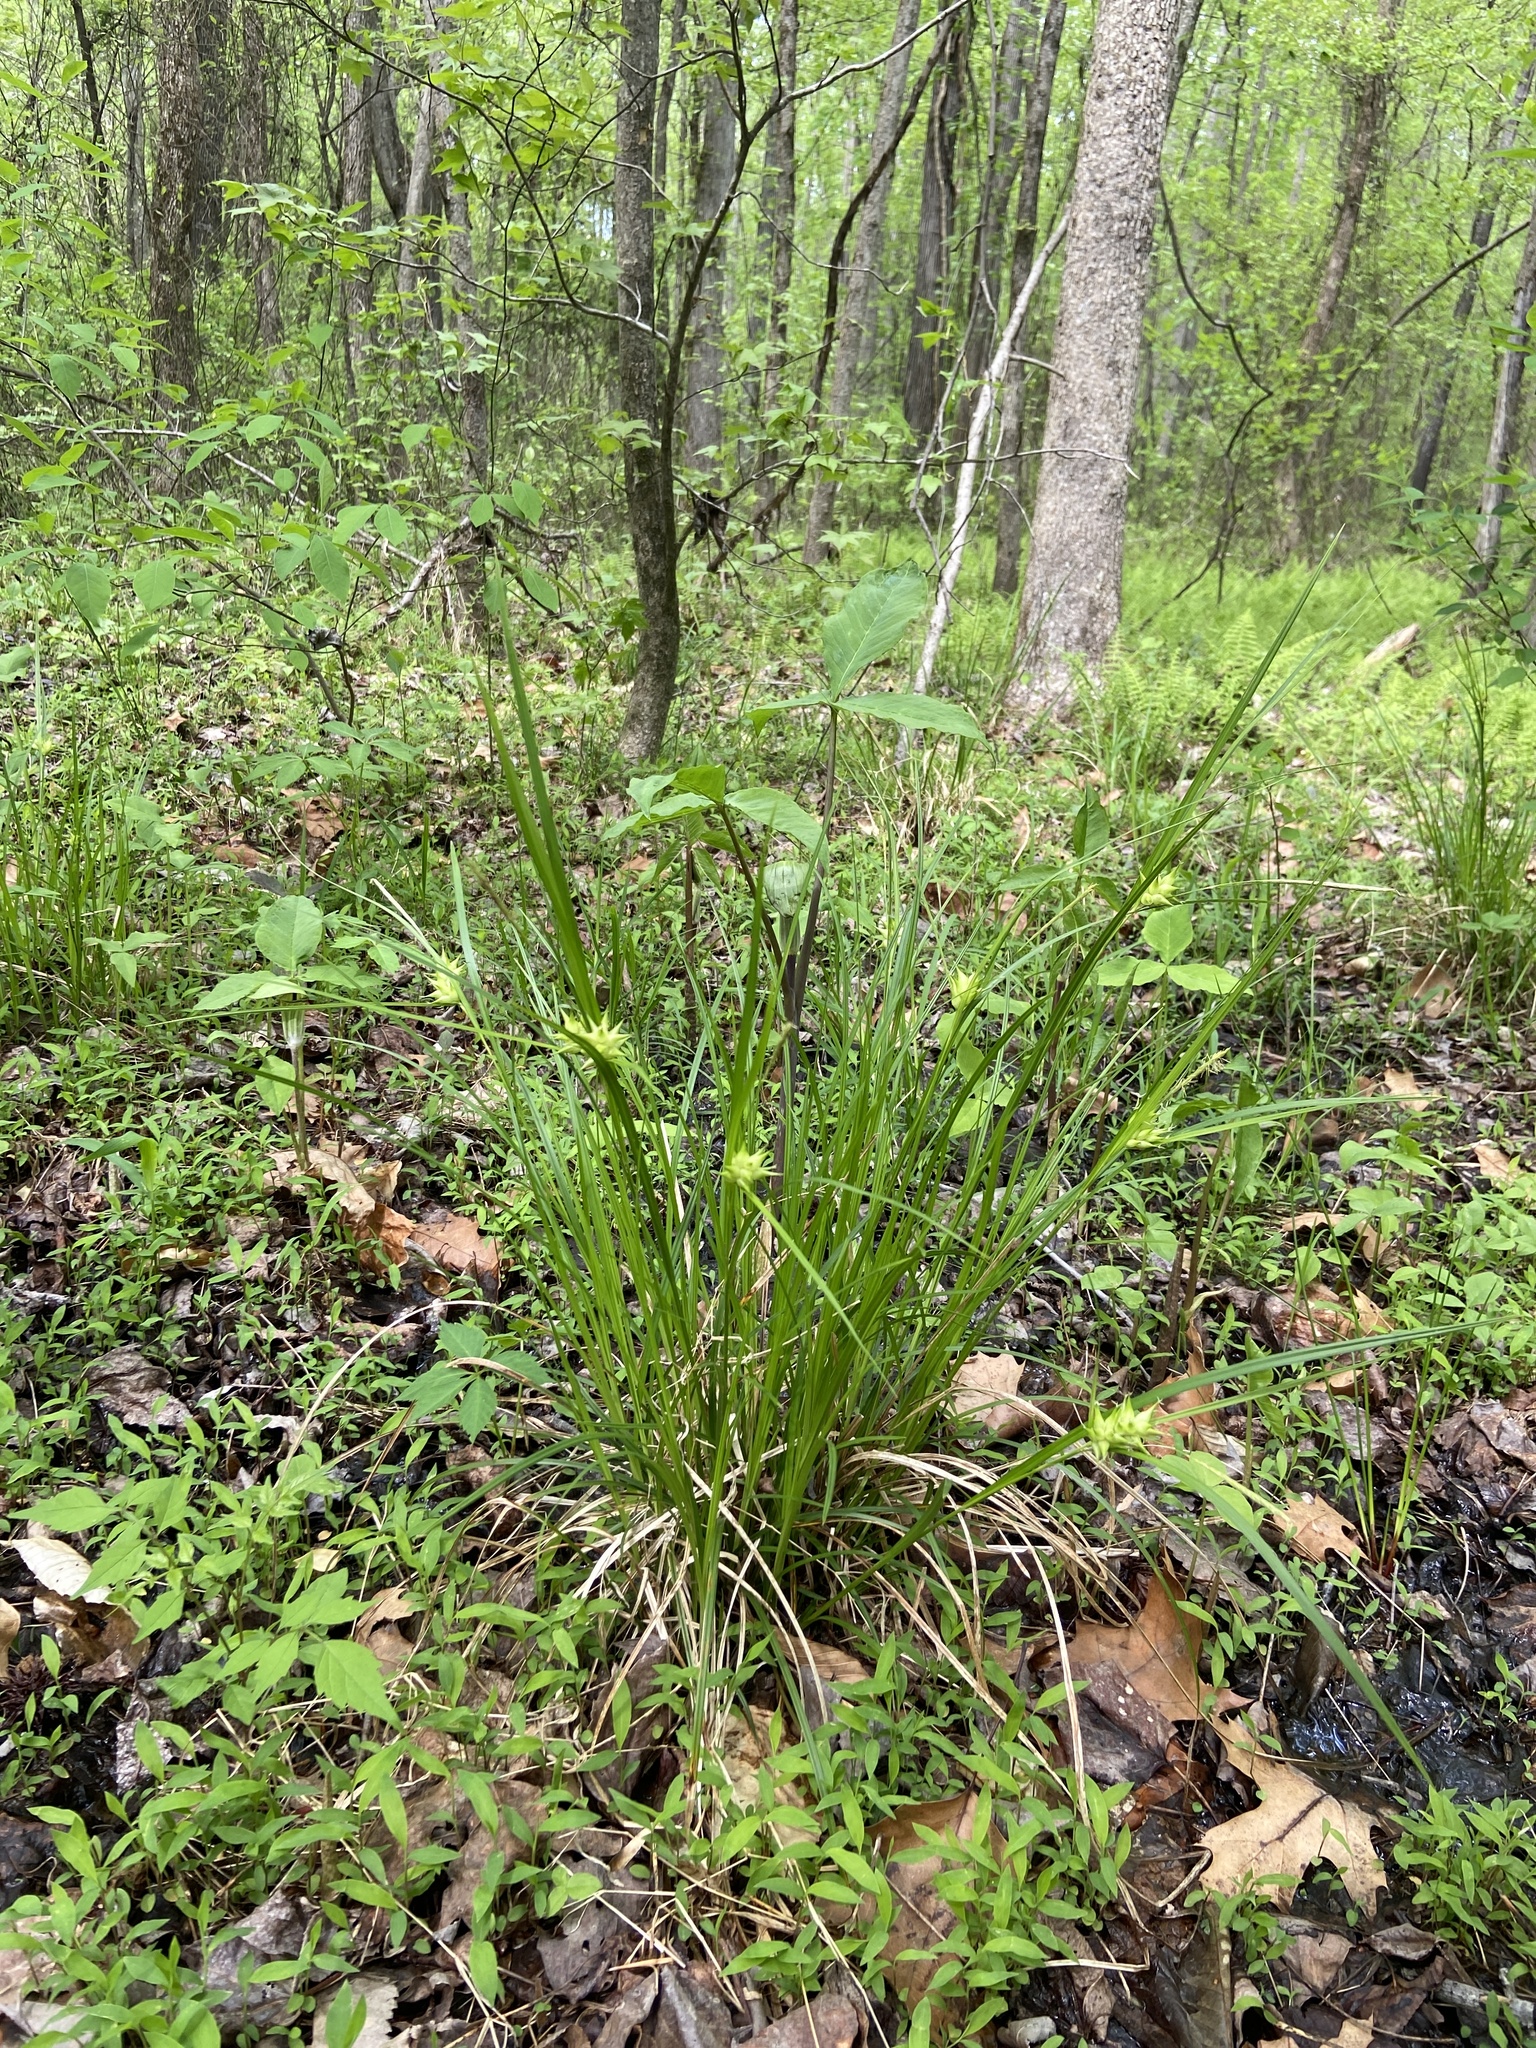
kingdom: Plantae
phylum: Tracheophyta
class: Liliopsida
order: Poales
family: Cyperaceae
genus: Carex
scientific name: Carex intumescens
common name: Greater bladder sedge
